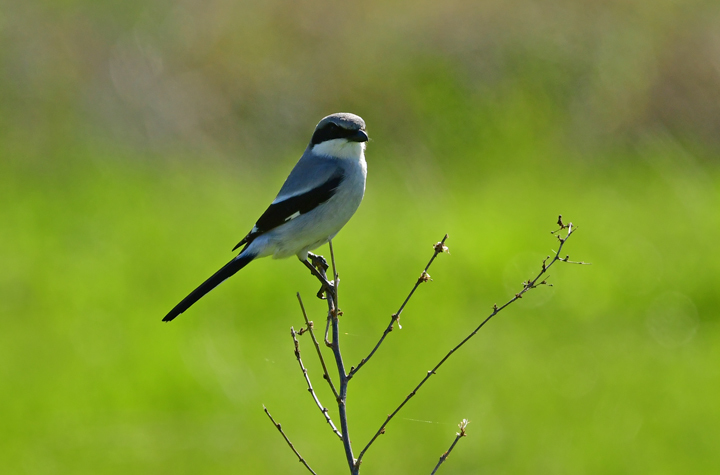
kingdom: Animalia
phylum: Chordata
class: Aves
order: Passeriformes
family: Laniidae
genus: Lanius
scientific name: Lanius ludovicianus
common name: Loggerhead shrike
